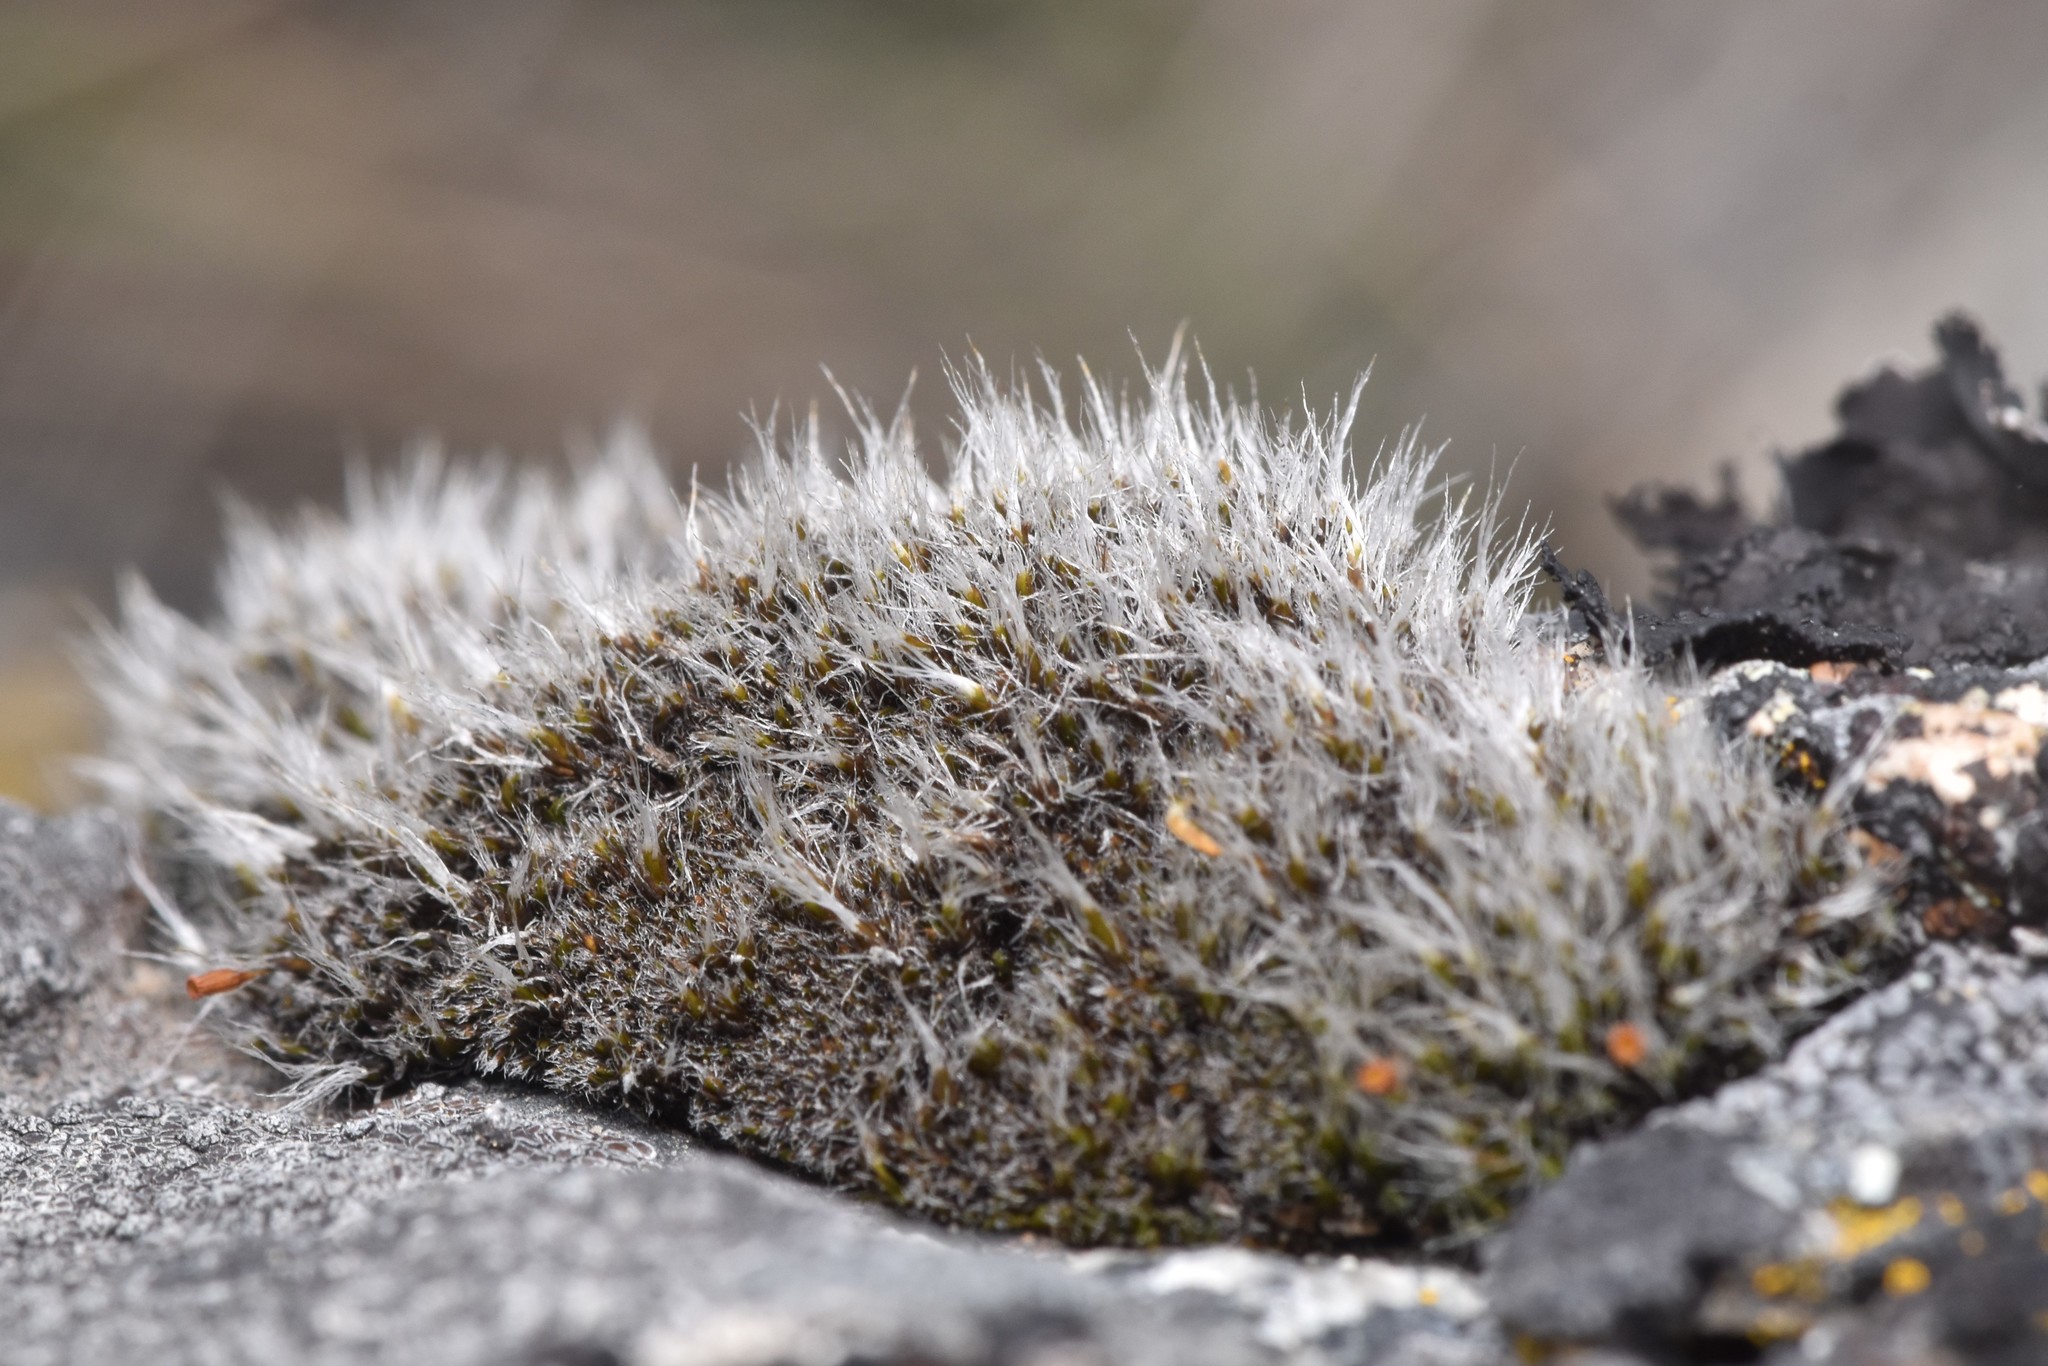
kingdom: Plantae
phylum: Bryophyta
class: Bryopsida
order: Grimmiales
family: Grimmiaceae
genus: Coscinodon
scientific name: Coscinodon calyptratus
